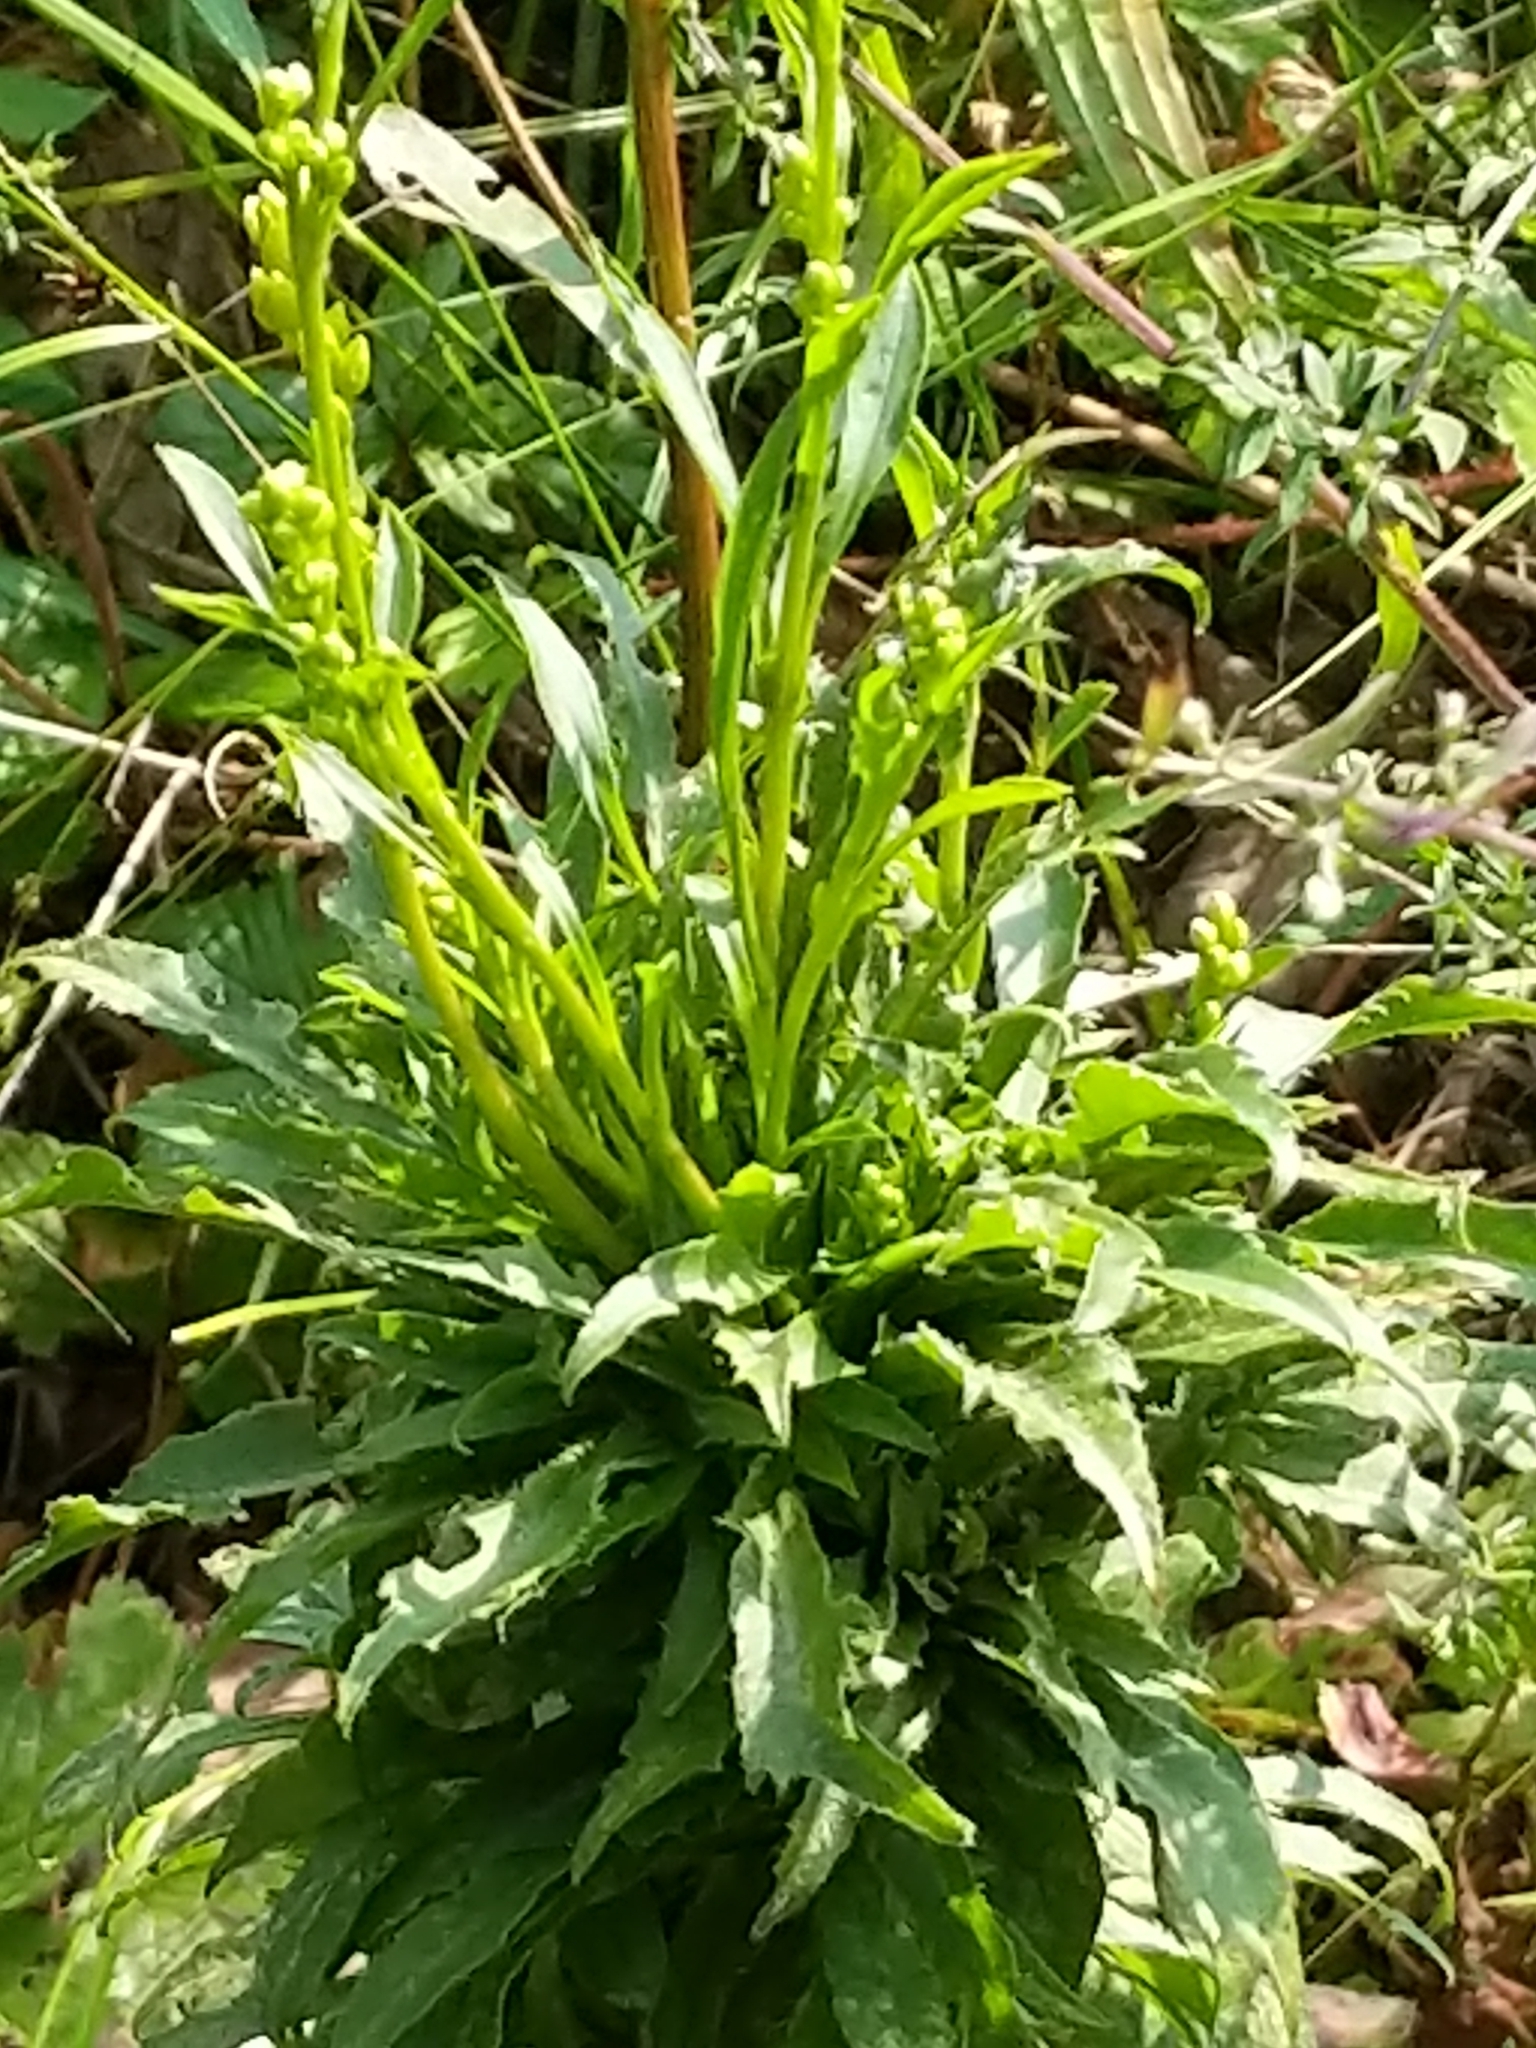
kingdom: Plantae
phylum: Tracheophyta
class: Magnoliopsida
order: Asterales
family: Asteraceae
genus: Solidago
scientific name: Solidago juncea
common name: Early goldenrod
